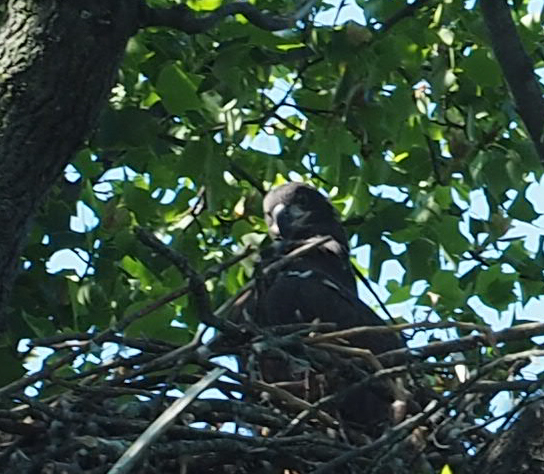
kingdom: Animalia
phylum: Chordata
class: Aves
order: Accipitriformes
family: Accipitridae
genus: Haliaeetus
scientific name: Haliaeetus leucocephalus
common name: Bald eagle
